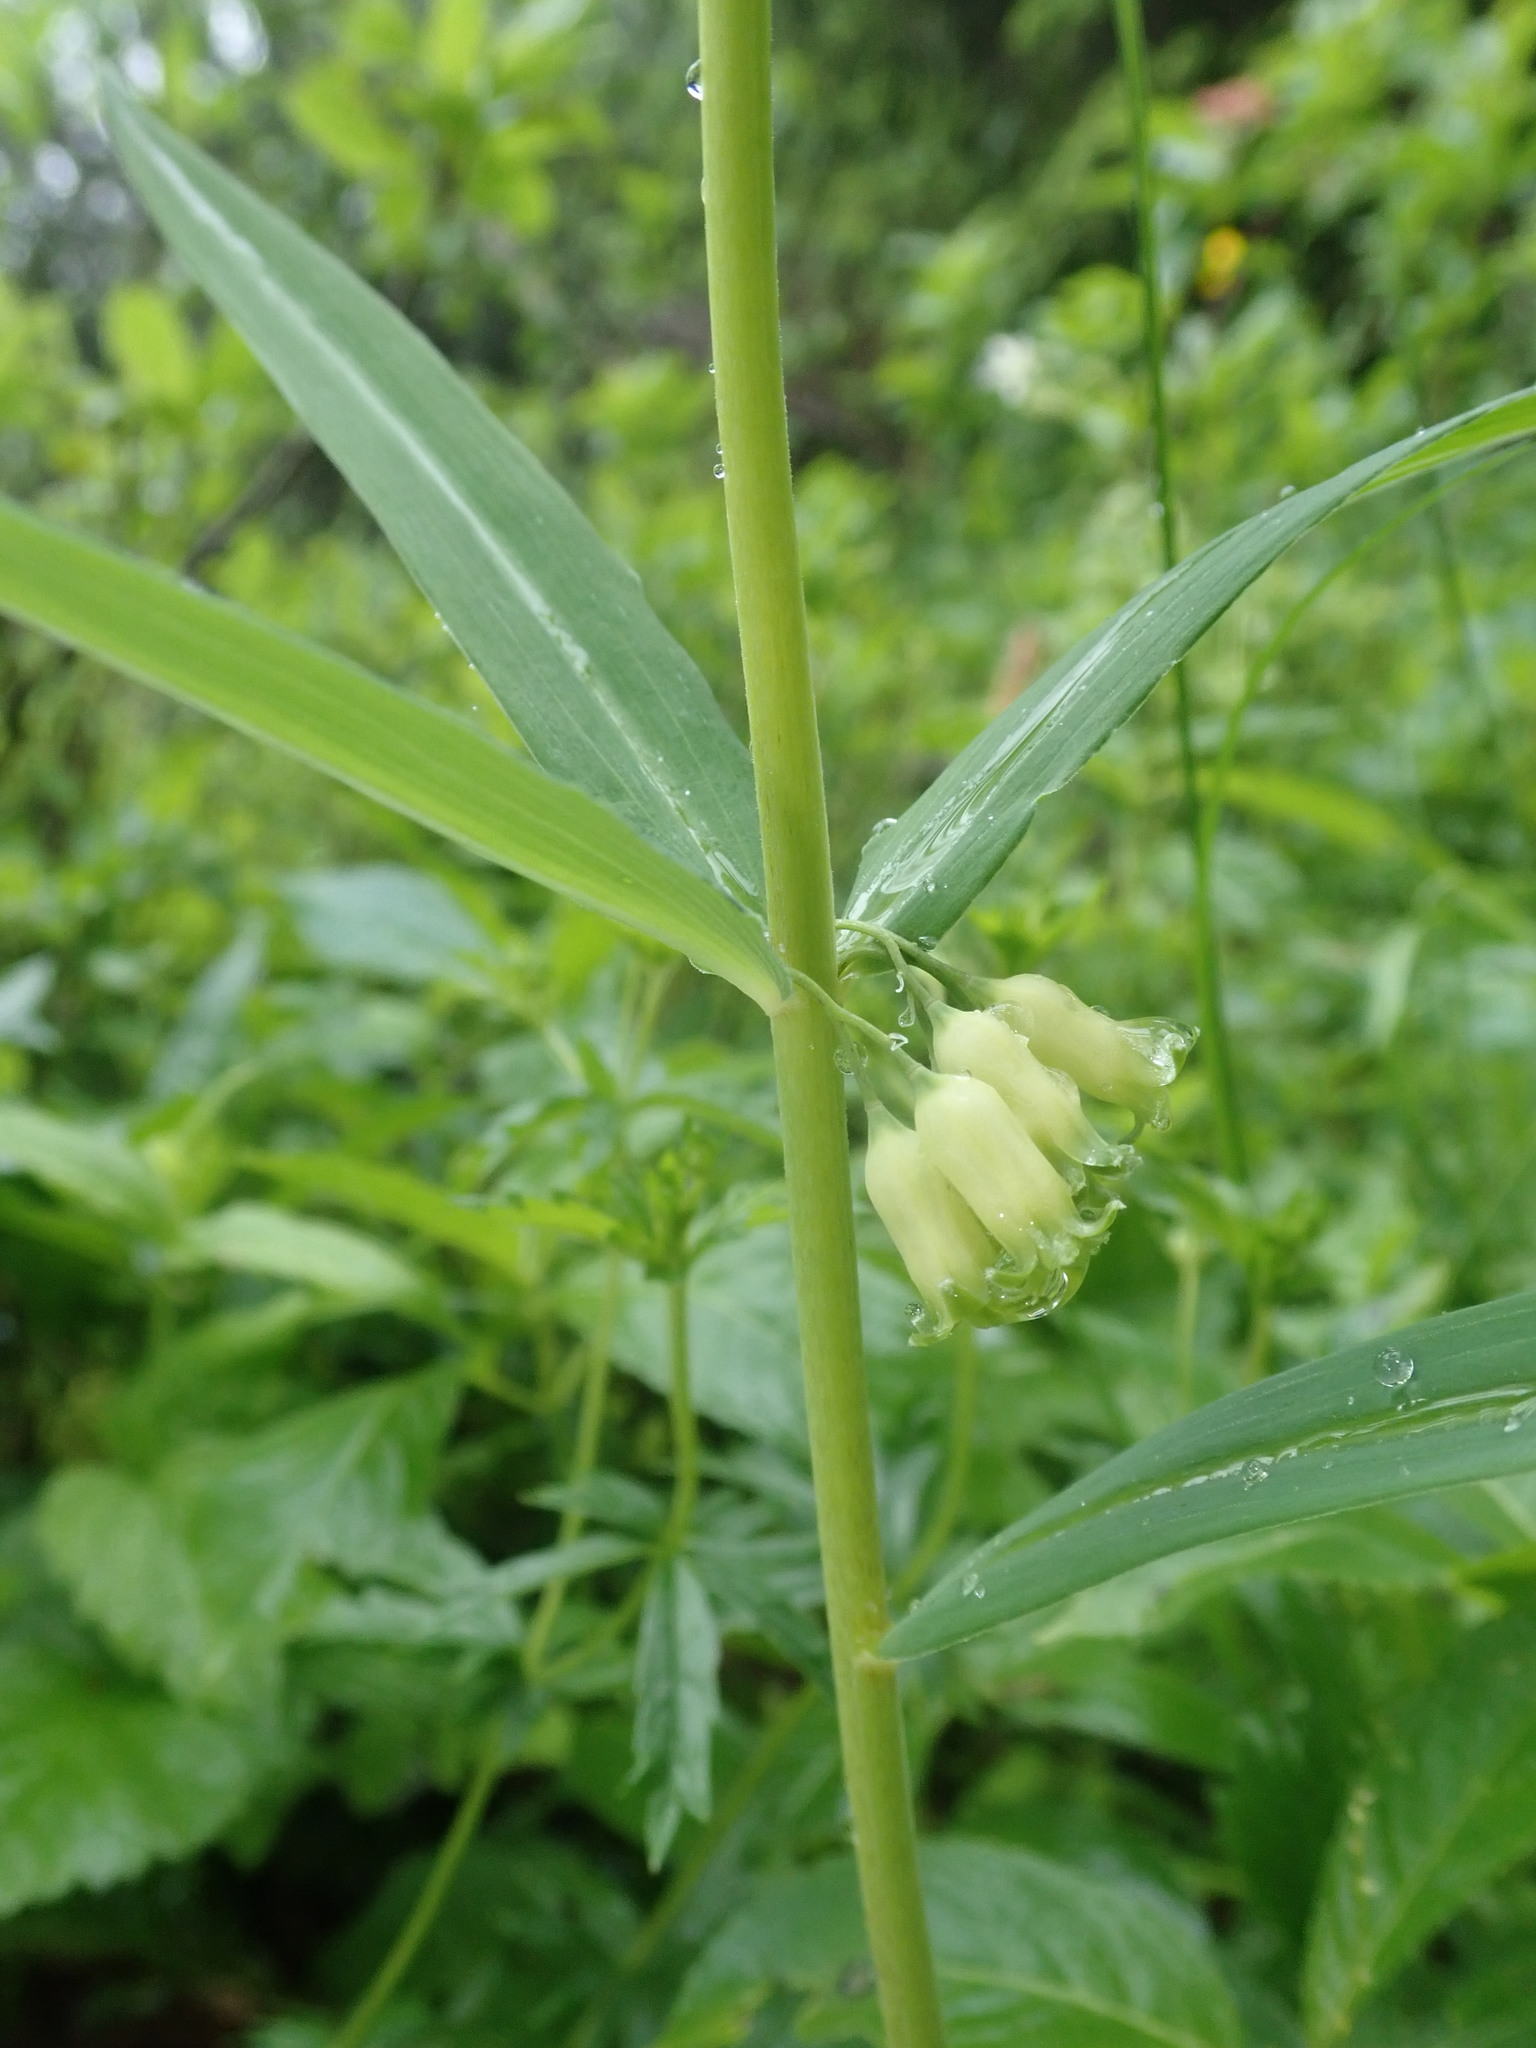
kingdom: Plantae
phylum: Tracheophyta
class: Liliopsida
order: Asparagales
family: Asparagaceae
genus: Polygonatum
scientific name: Polygonatum verticillatum
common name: Whorled solomon's-seal
